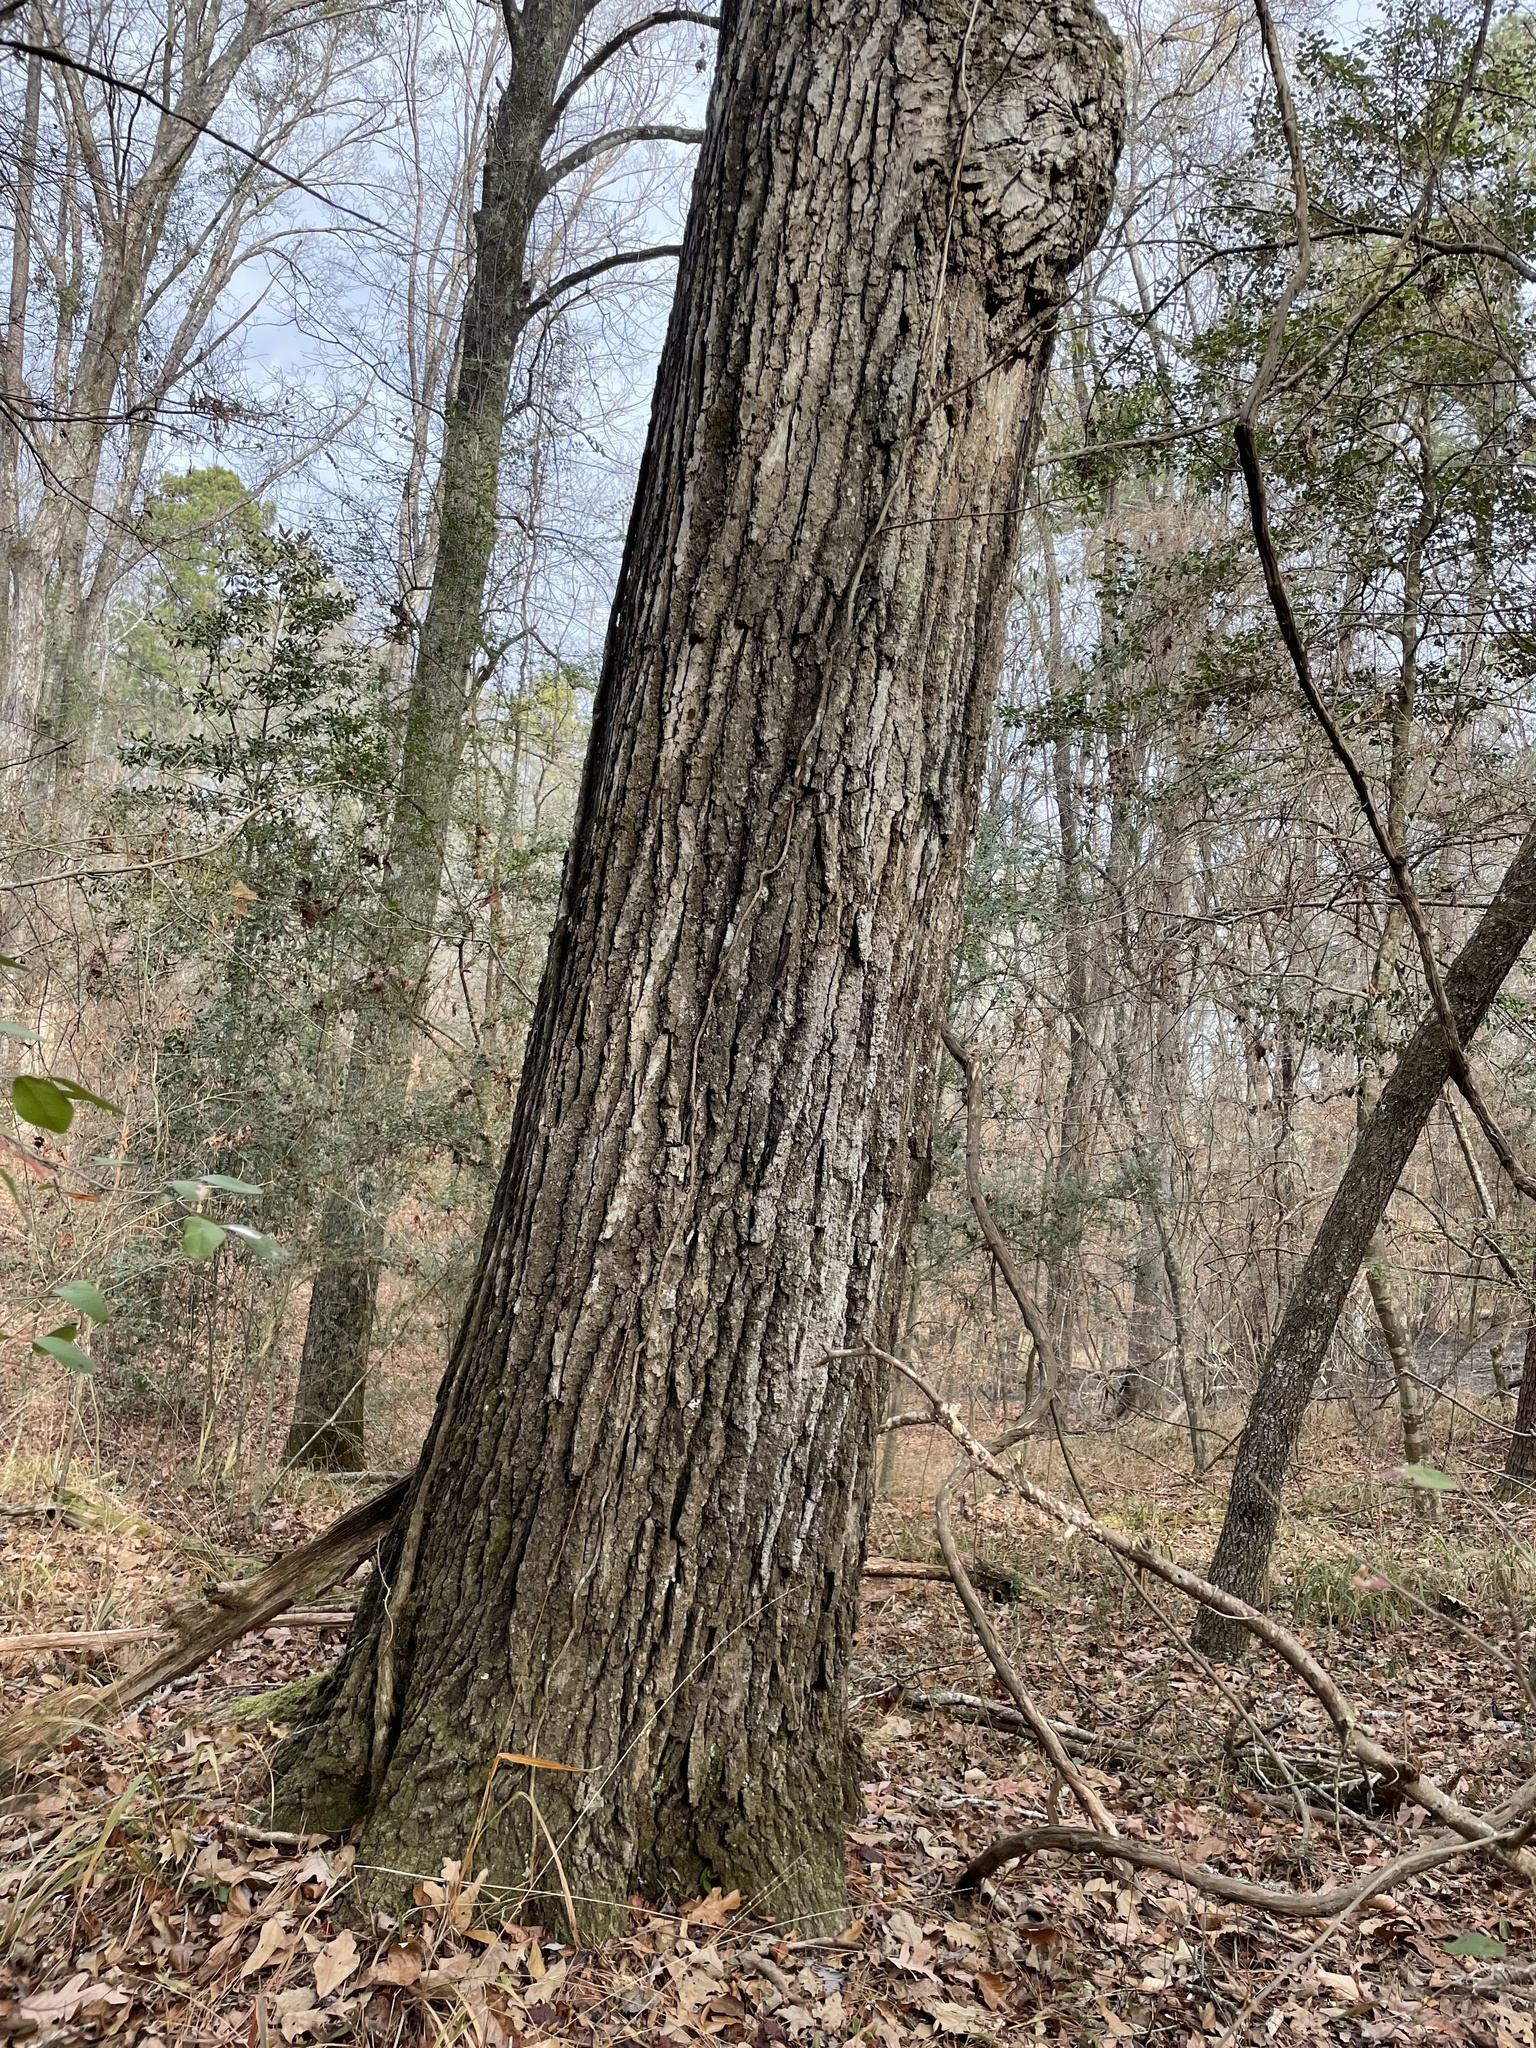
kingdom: Plantae
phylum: Tracheophyta
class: Magnoliopsida
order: Fagales
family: Fagaceae
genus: Quercus
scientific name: Quercus velutina
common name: Black oak
